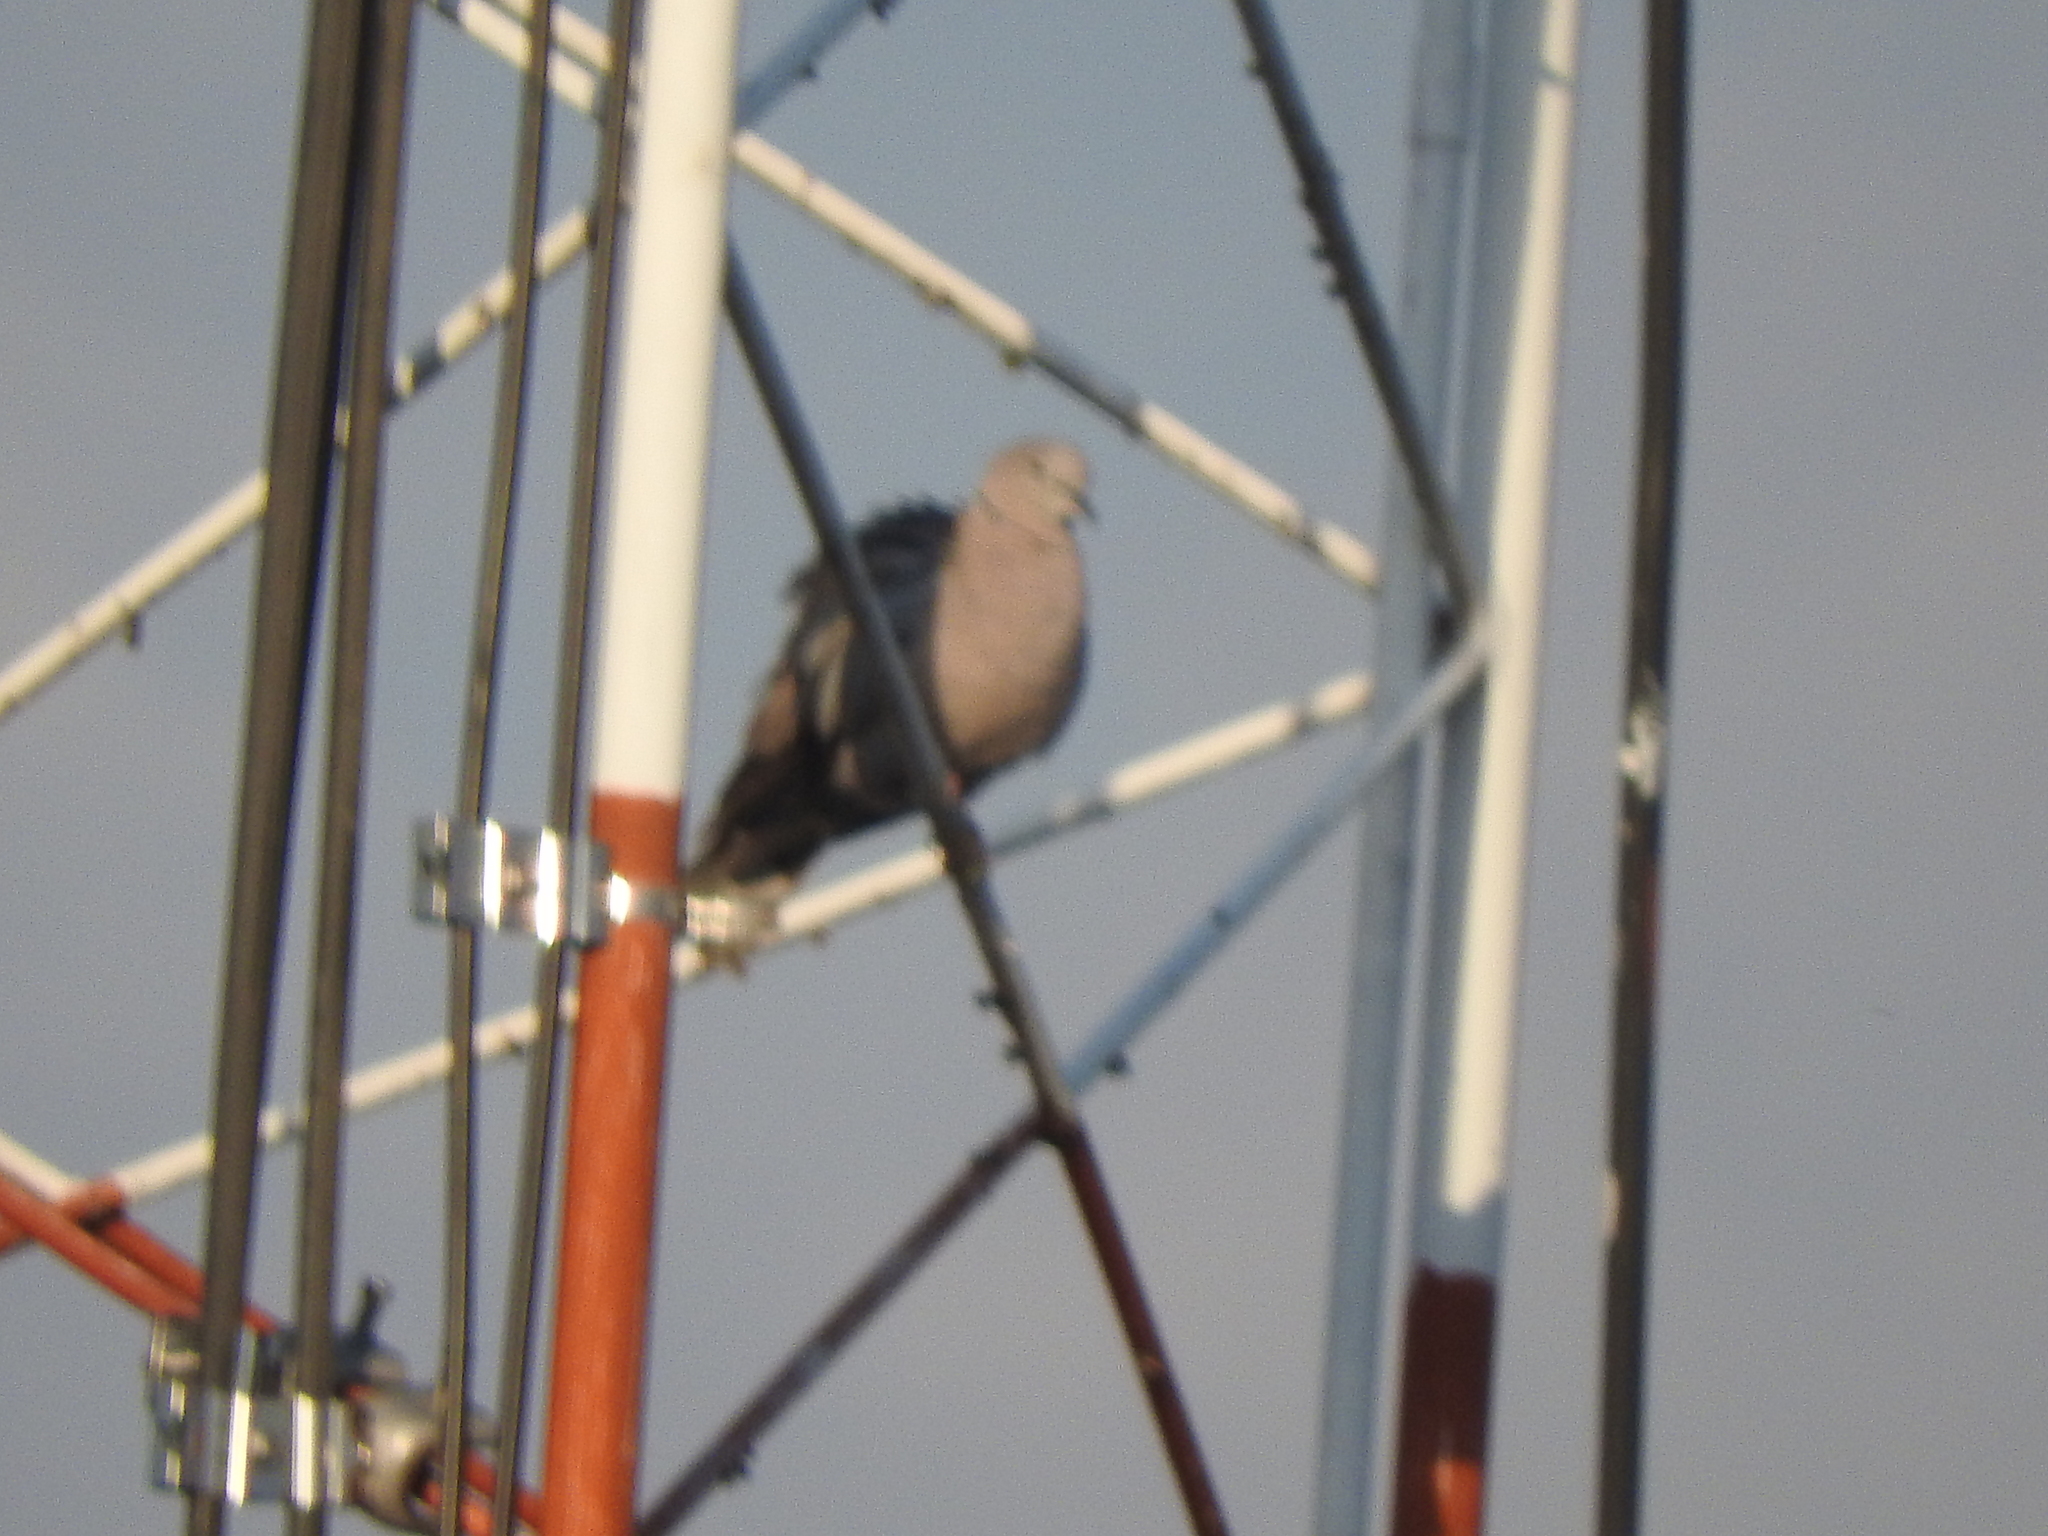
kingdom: Animalia
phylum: Chordata
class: Aves
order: Columbiformes
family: Columbidae
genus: Streptopelia
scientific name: Streptopelia decaocto
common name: Eurasian collared dove
